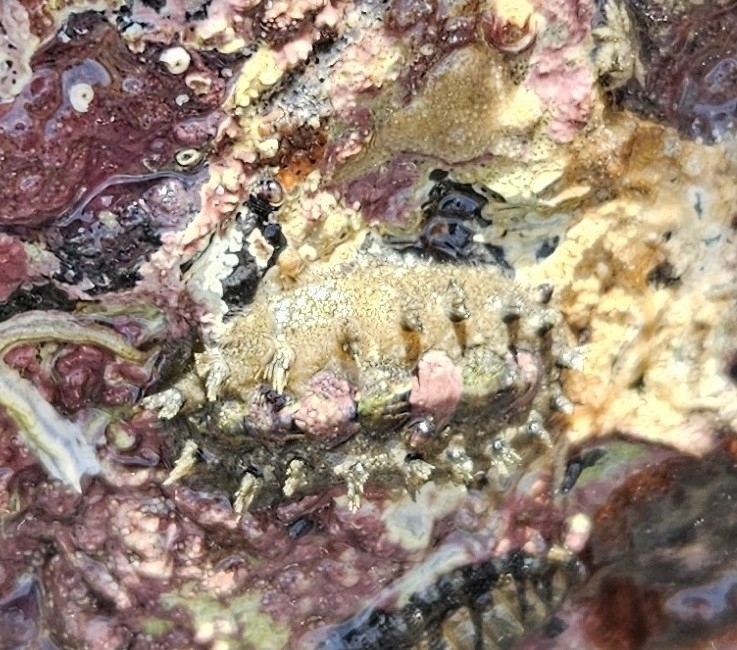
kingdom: Animalia
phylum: Mollusca
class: Polyplacophora
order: Chitonida
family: Acanthochitonidae
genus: Acanthochitona
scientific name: Acanthochitona zelandica
